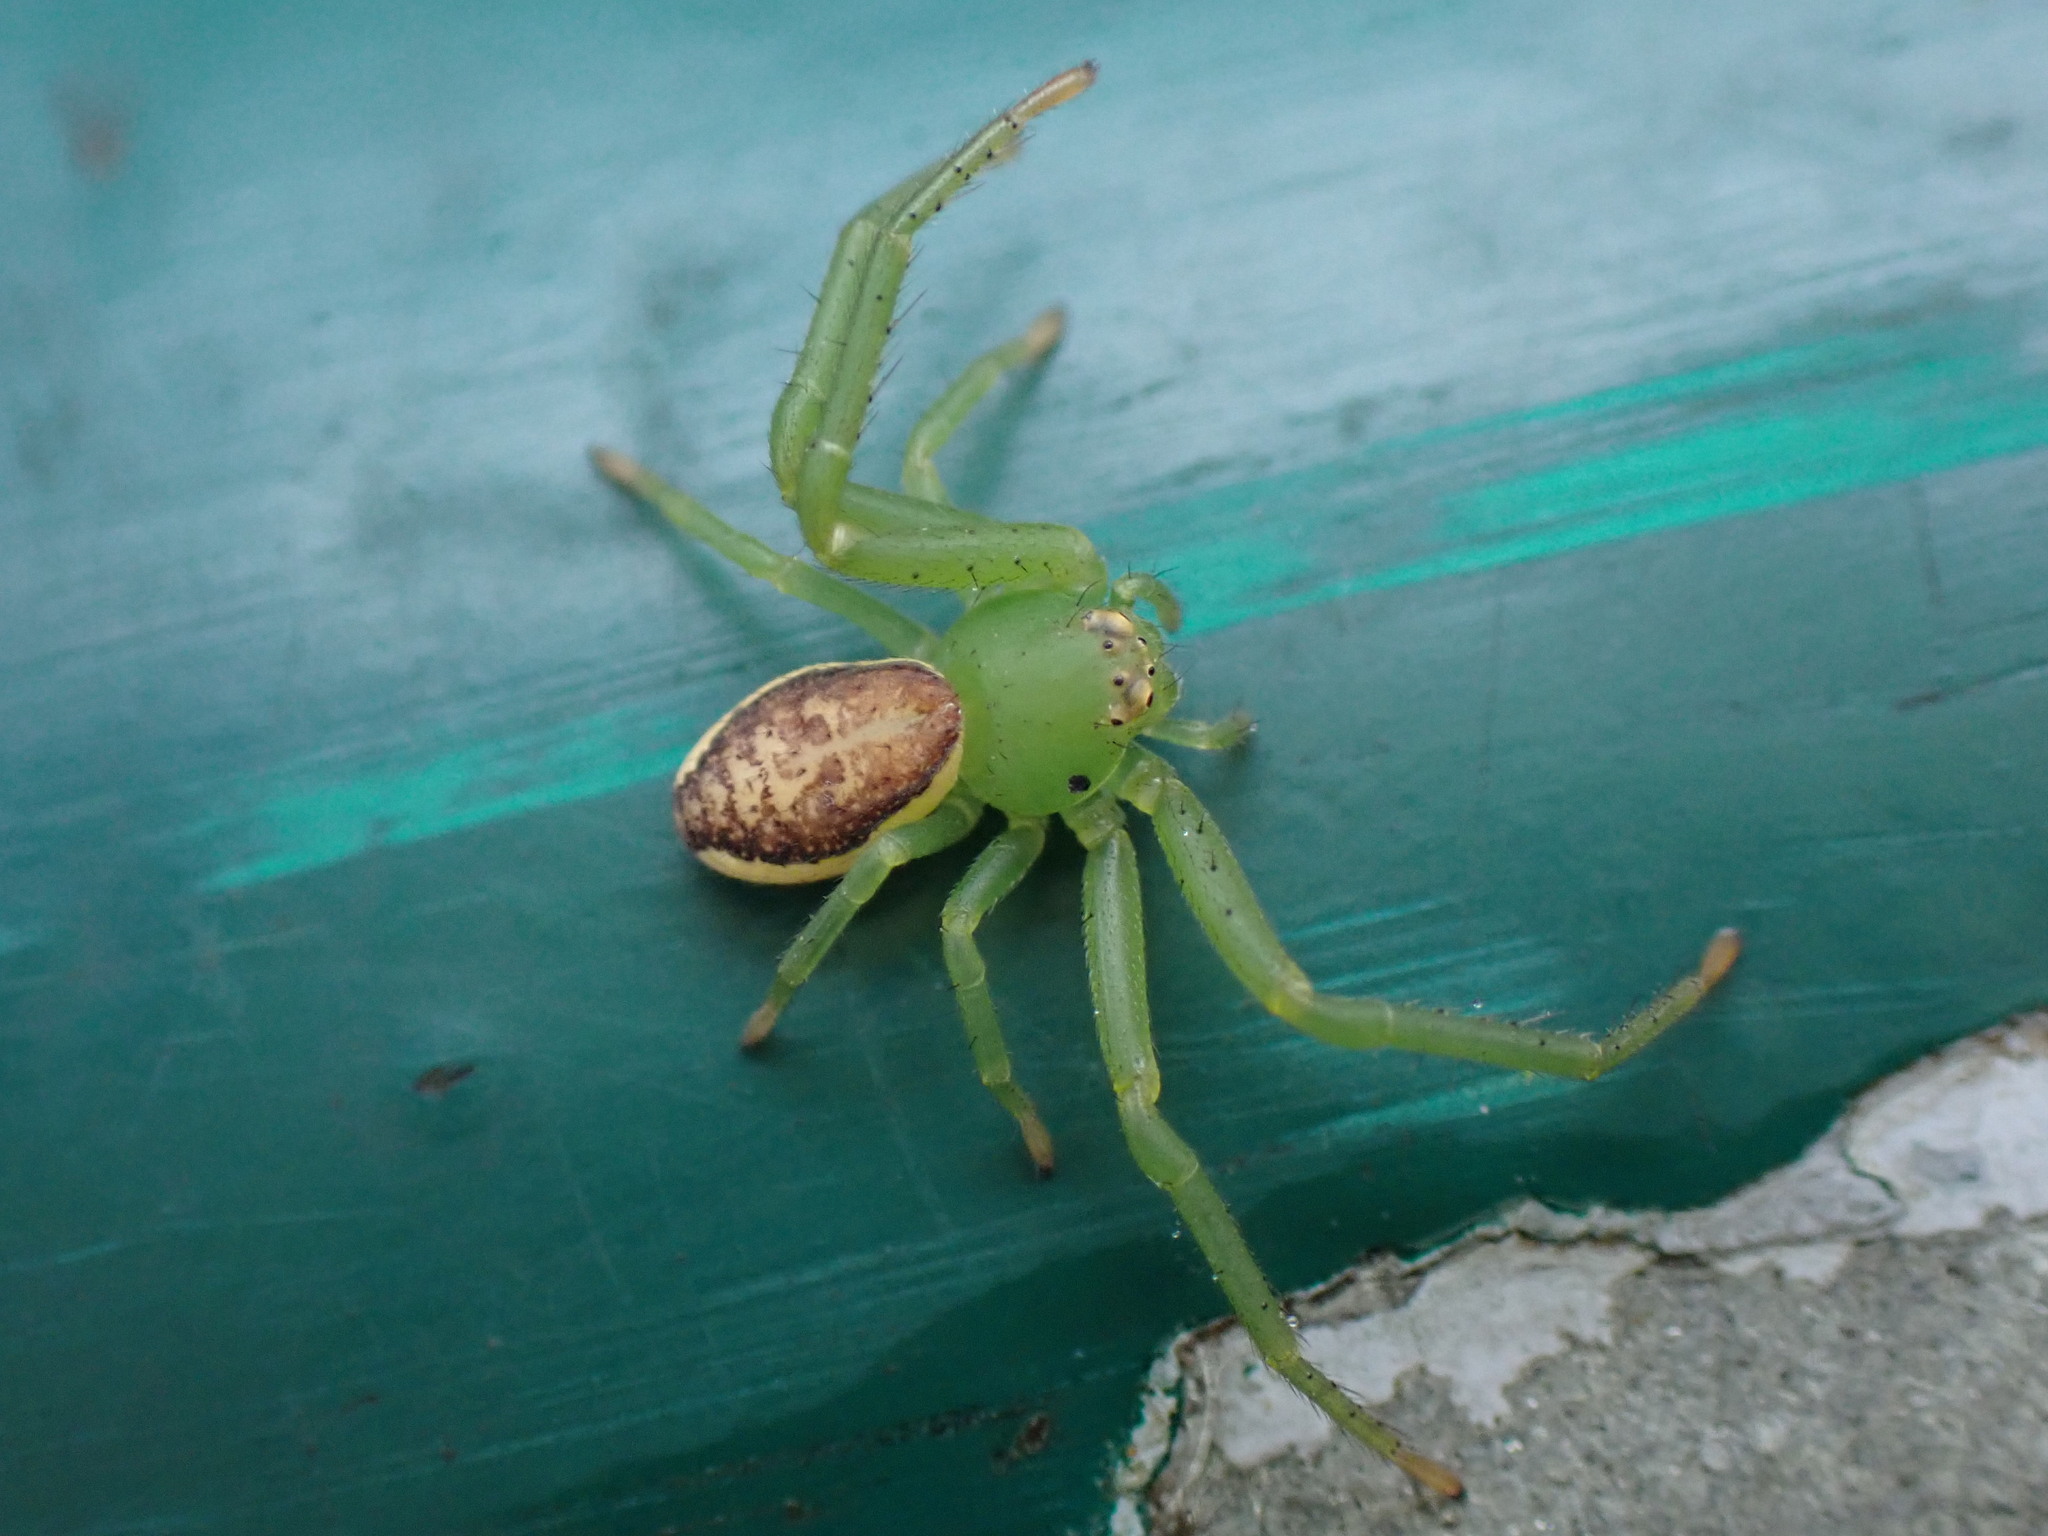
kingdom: Animalia
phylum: Arthropoda
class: Arachnida
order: Araneae
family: Thomisidae
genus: Diaea
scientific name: Diaea dorsata
